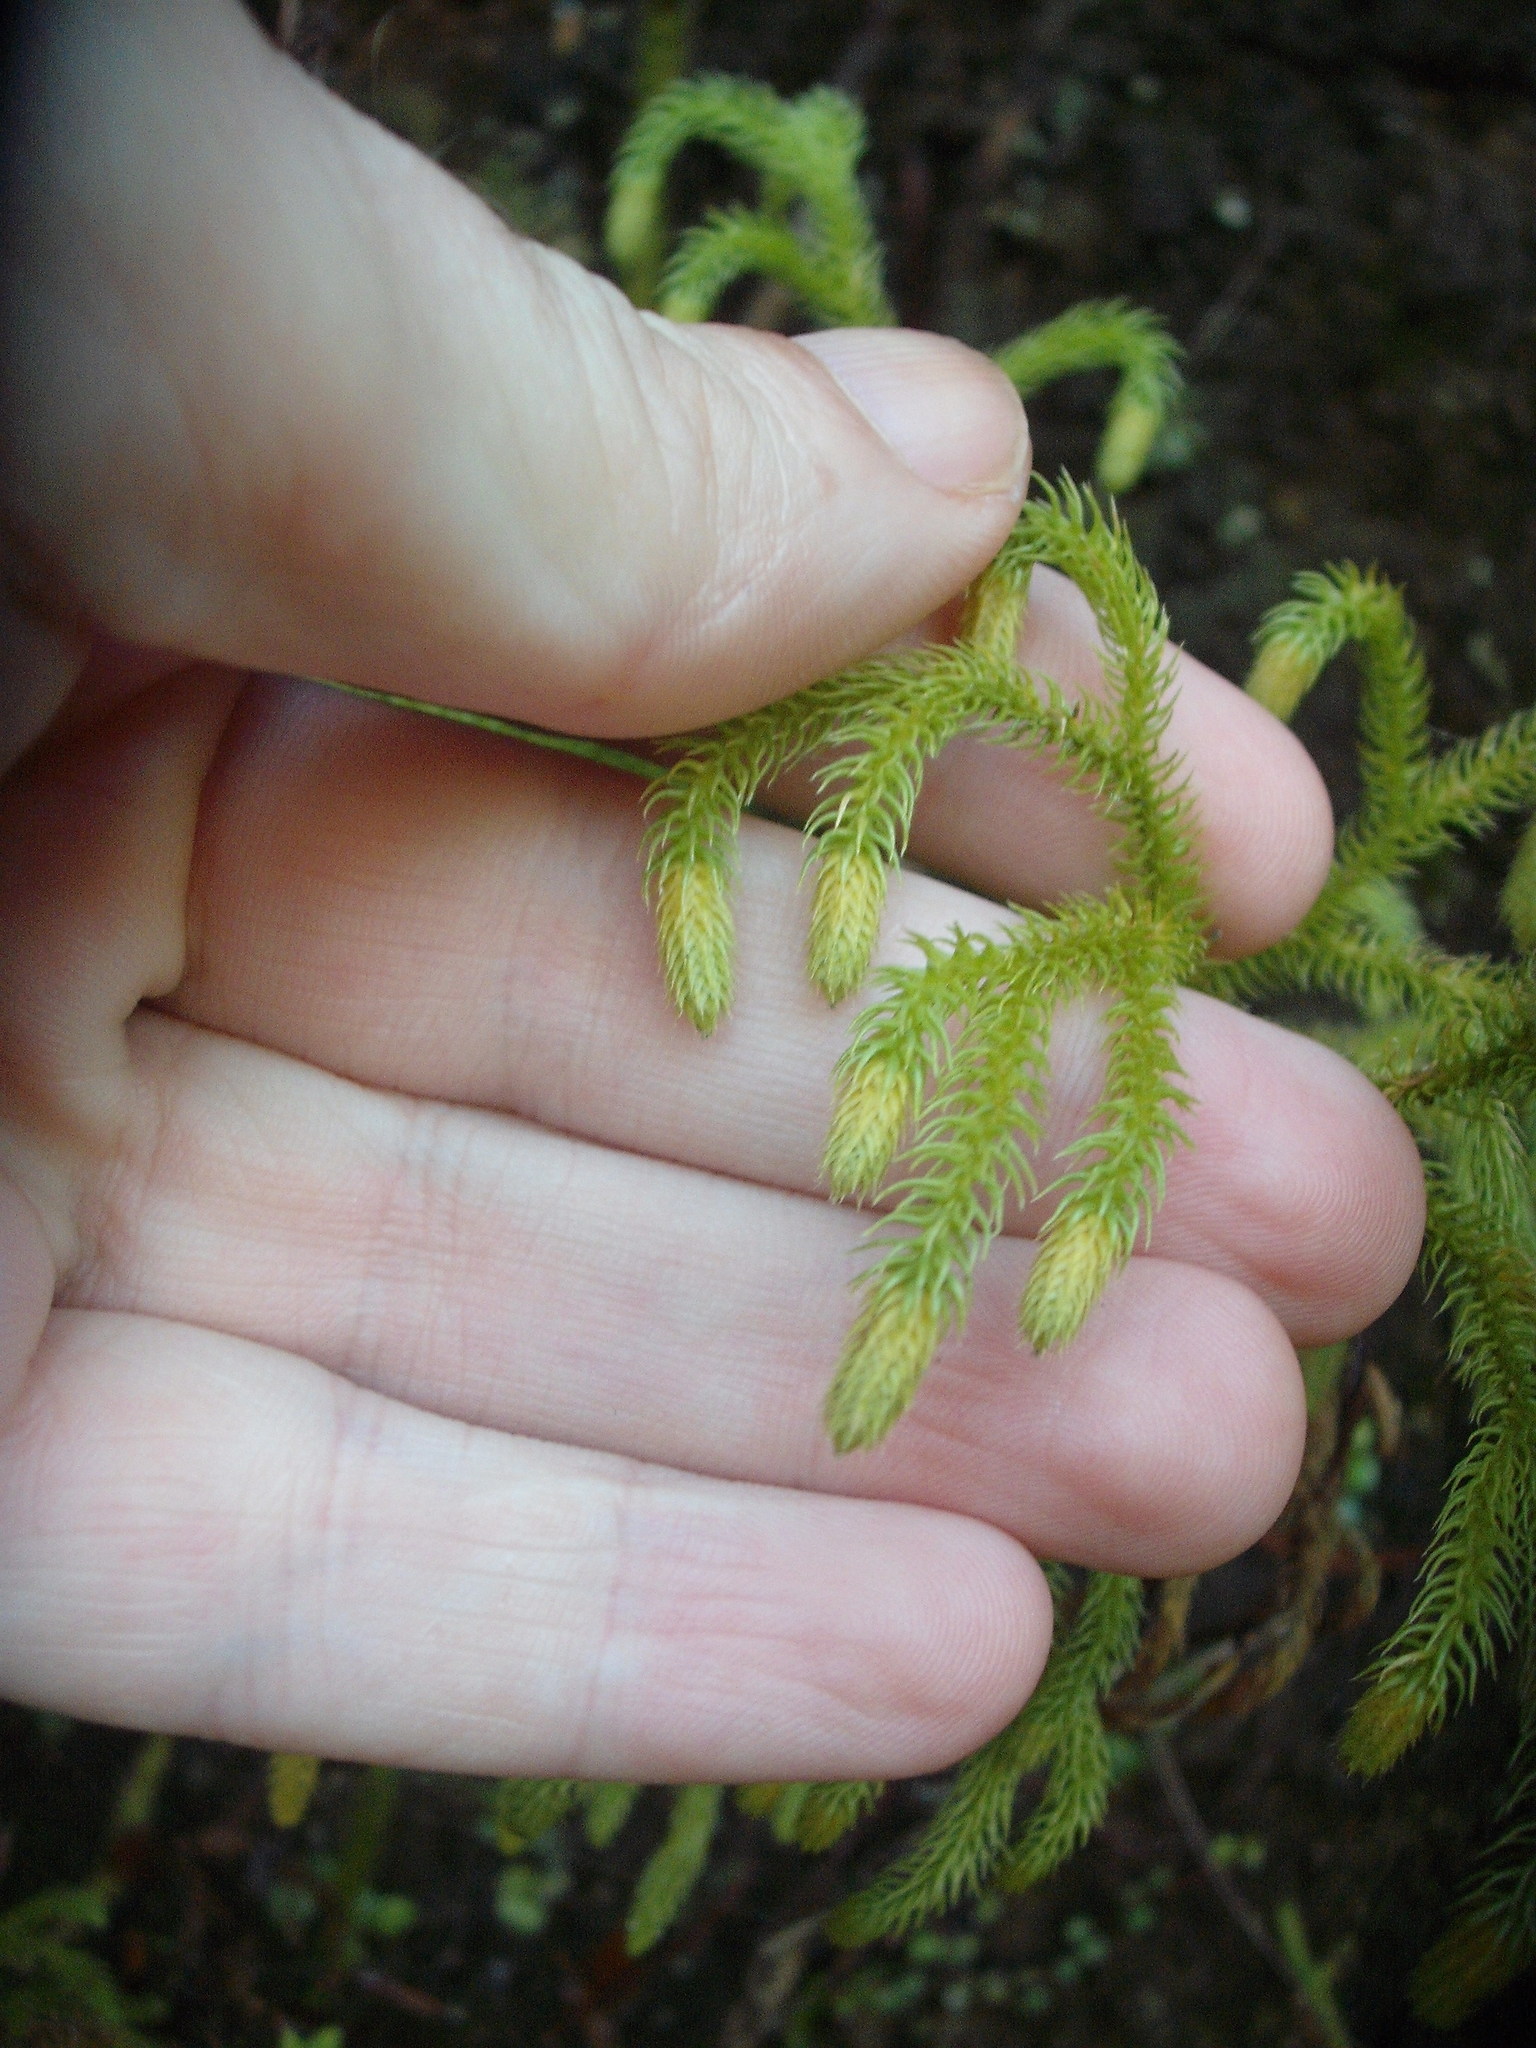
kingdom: Plantae
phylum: Tracheophyta
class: Lycopodiopsida
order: Lycopodiales
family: Lycopodiaceae
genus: Palhinhaea
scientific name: Palhinhaea cernua
